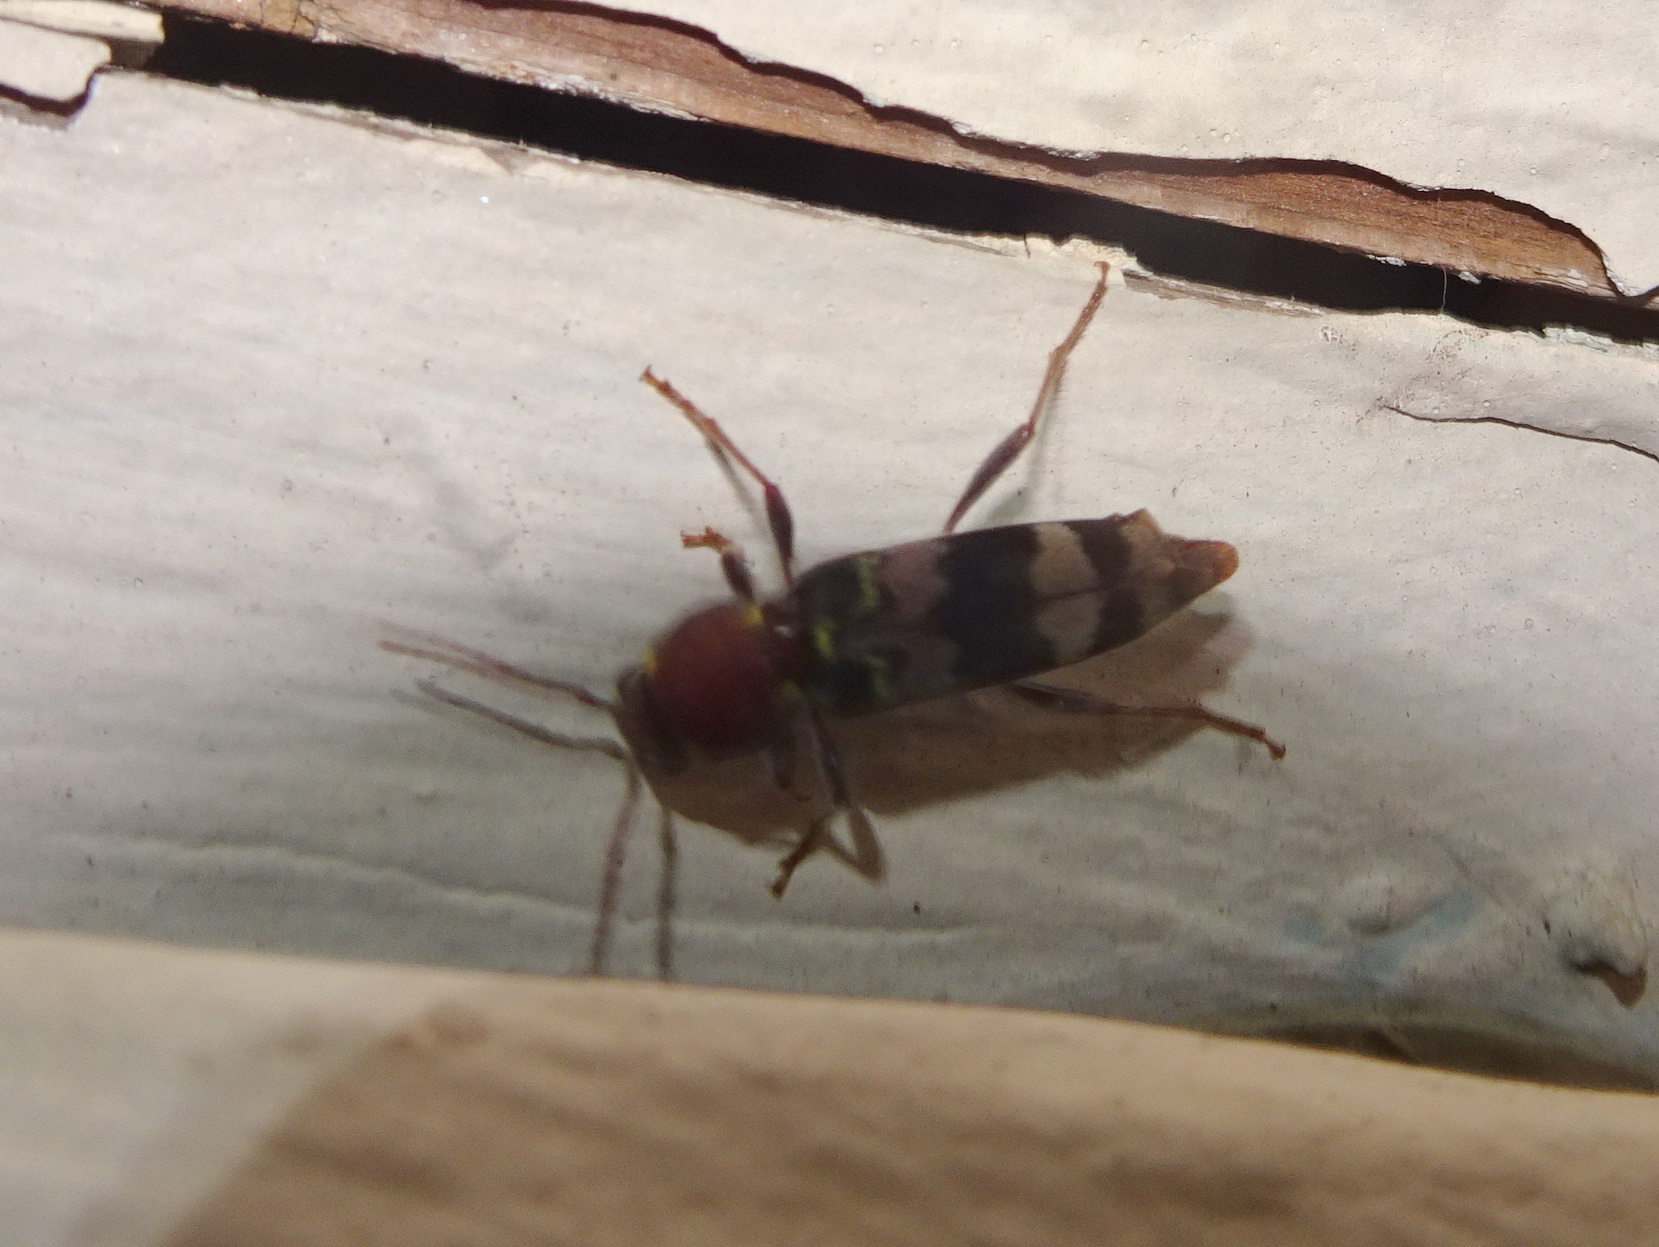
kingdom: Animalia
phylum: Arthropoda
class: Insecta
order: Coleoptera
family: Cerambycidae
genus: Xylotrechus
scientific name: Xylotrechus colonus
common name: Long-horned beetle
